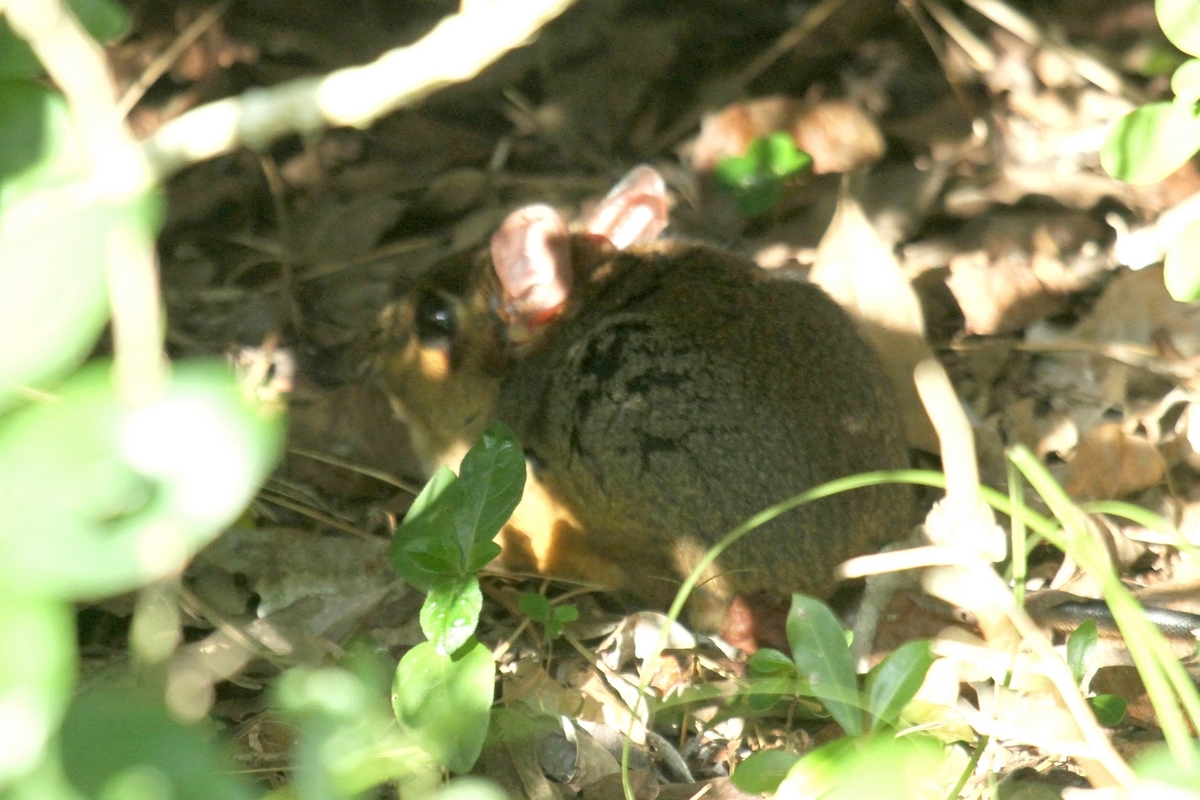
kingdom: Animalia
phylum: Chordata
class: Mammalia
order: Macroscelidea
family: Macroscelididae
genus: Petrodromus
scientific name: Petrodromus tetradactylus
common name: Four-toed elephant shrew
